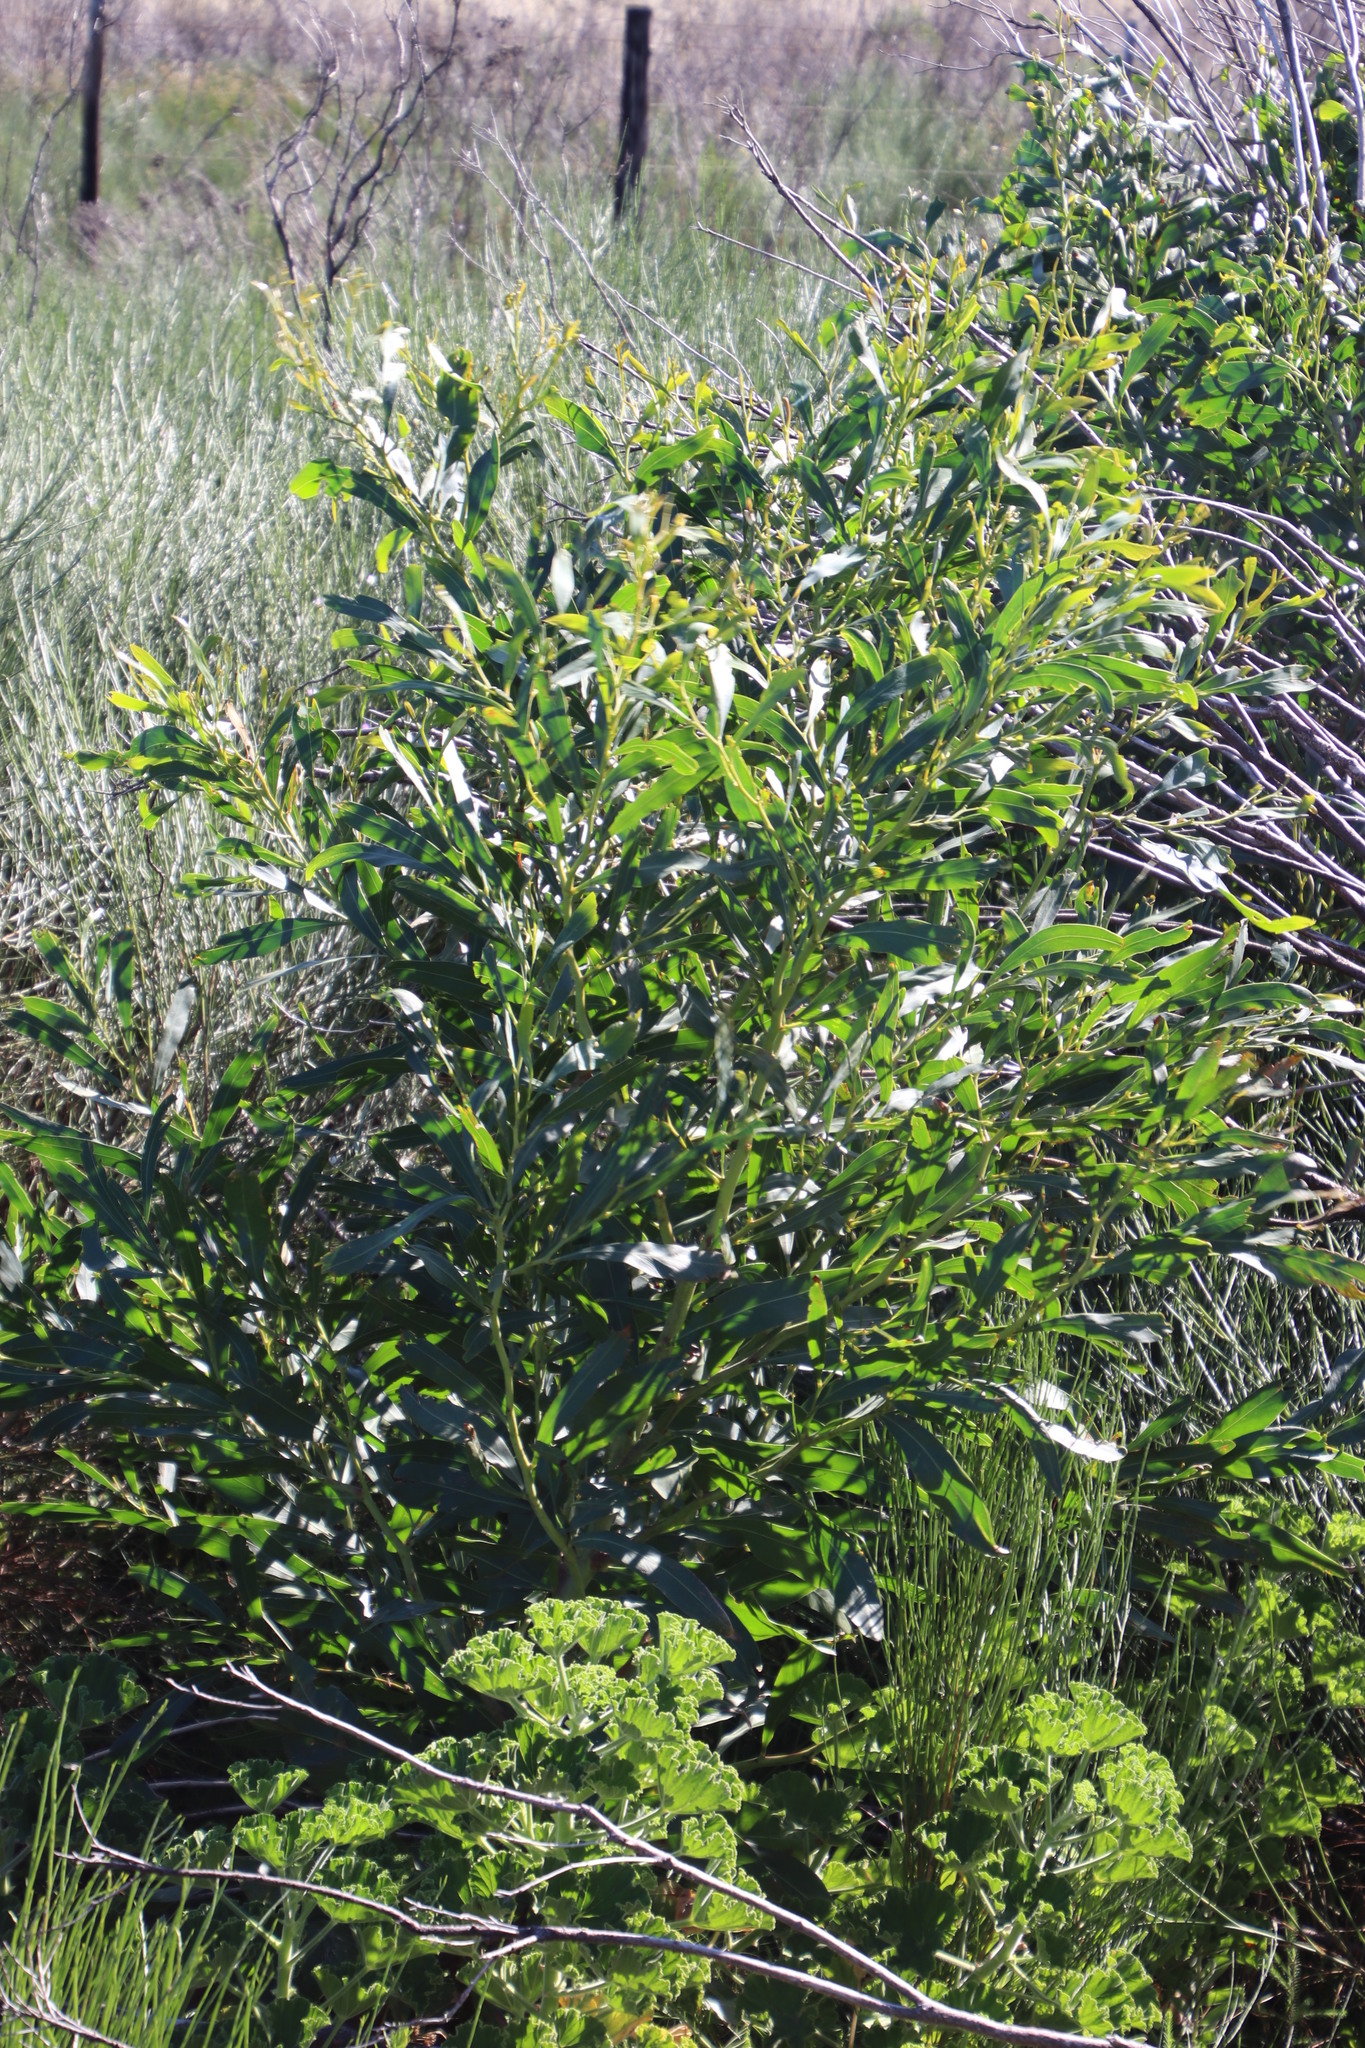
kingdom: Plantae
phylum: Tracheophyta
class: Magnoliopsida
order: Fabales
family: Fabaceae
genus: Acacia
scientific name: Acacia saligna
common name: Orange wattle
